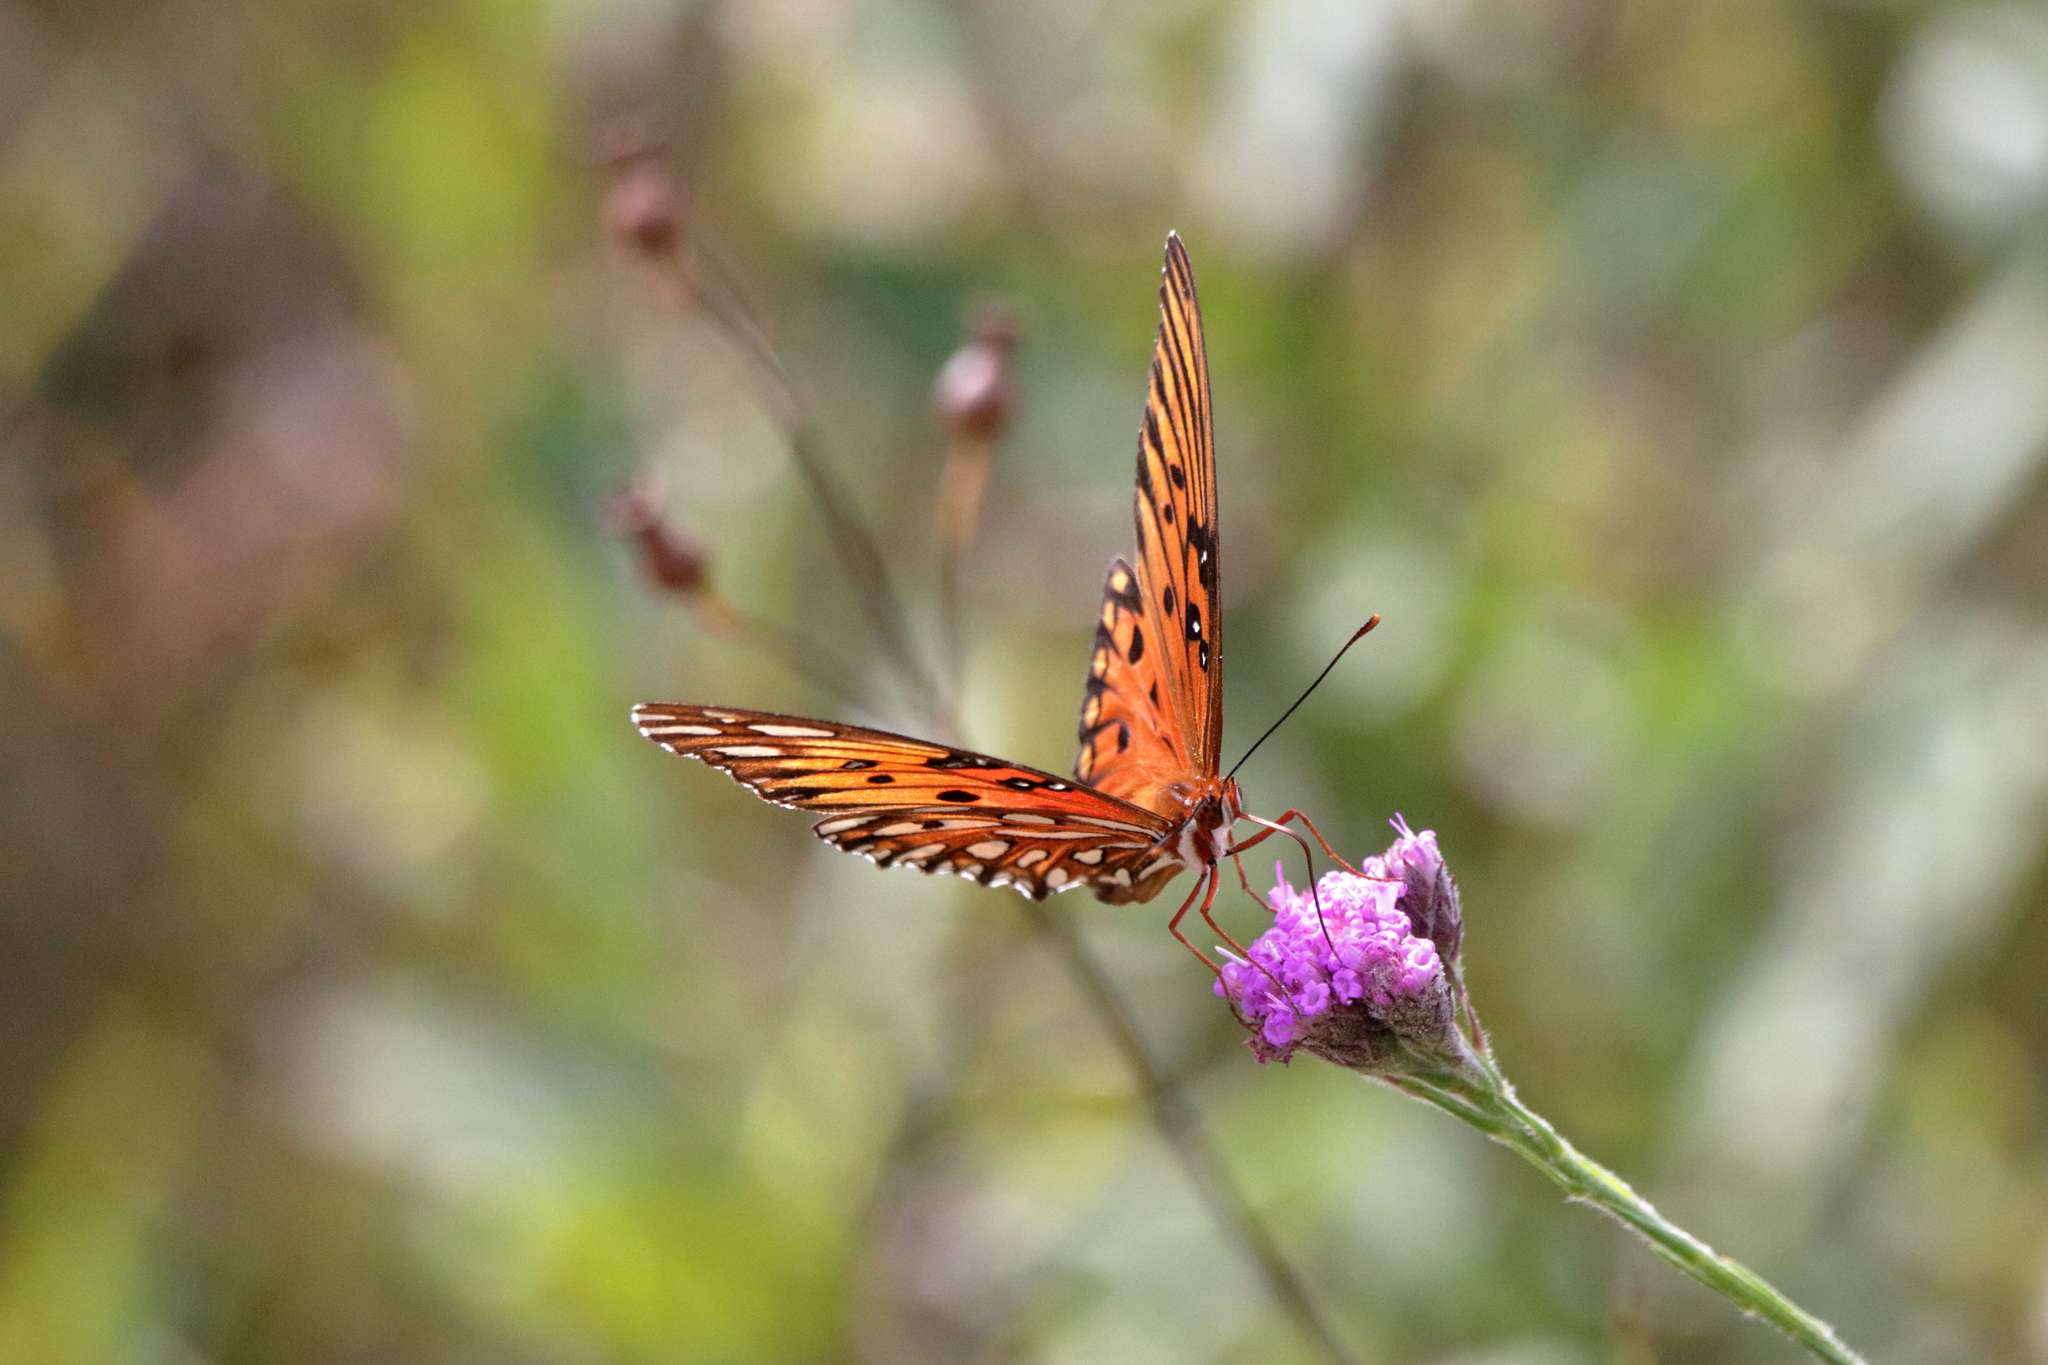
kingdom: Animalia
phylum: Arthropoda
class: Insecta
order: Lepidoptera
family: Nymphalidae
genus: Dione
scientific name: Dione vanillae
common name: Gulf fritillary
